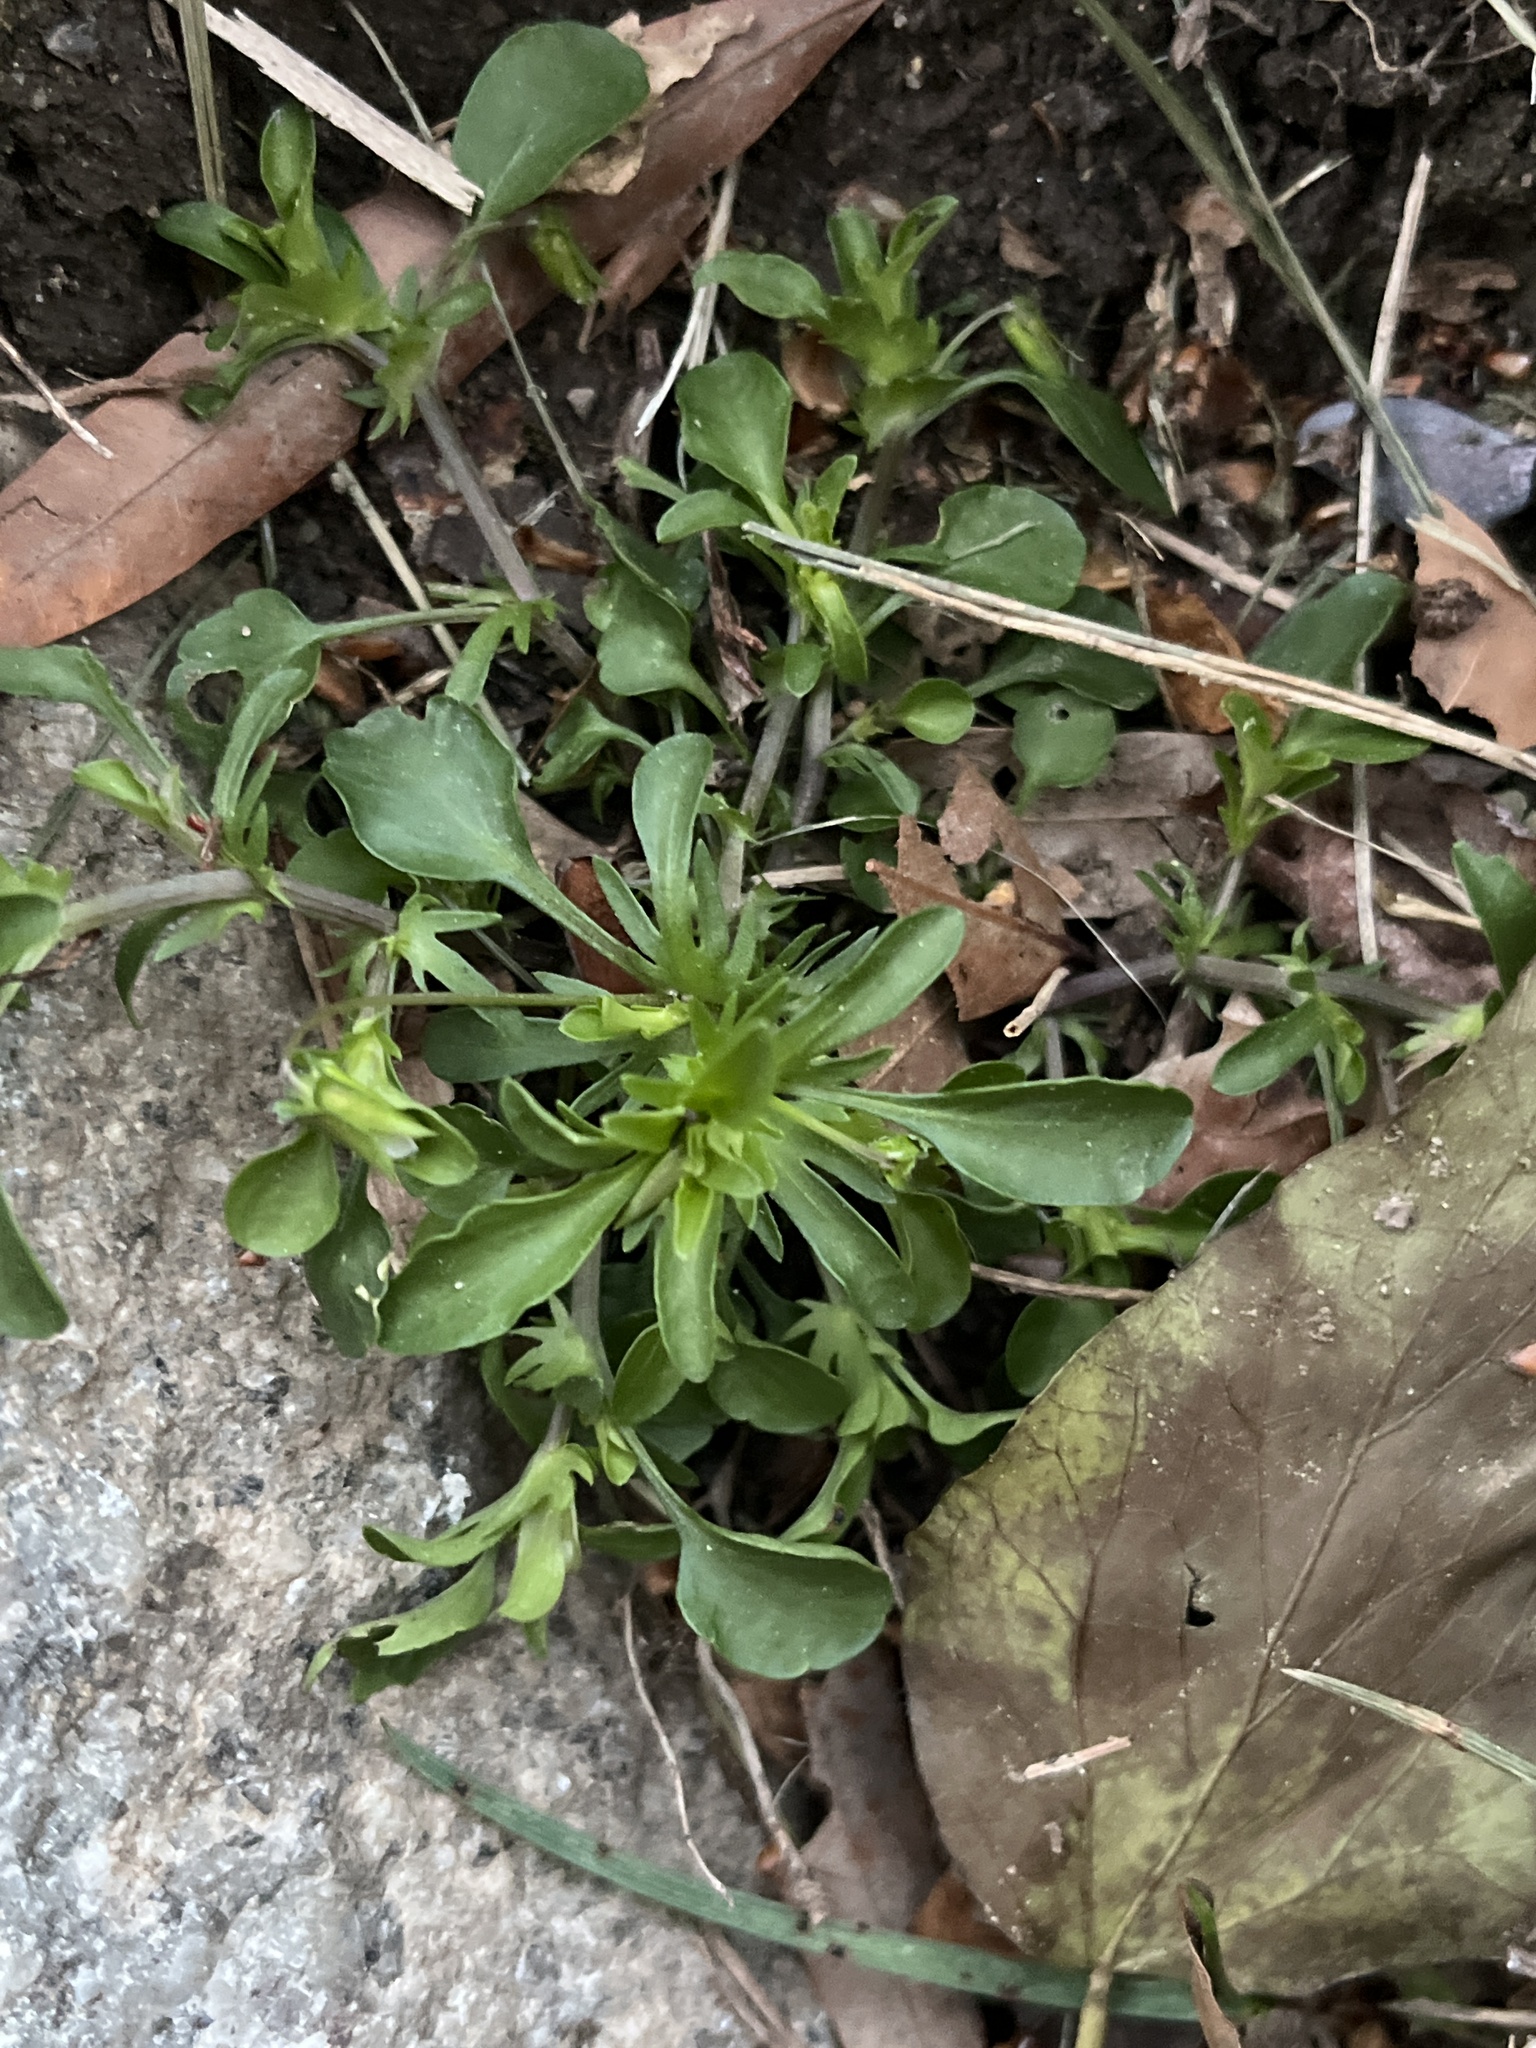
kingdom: Plantae
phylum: Tracheophyta
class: Magnoliopsida
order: Malpighiales
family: Violaceae
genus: Viola
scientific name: Viola rafinesquei
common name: American field pansy
